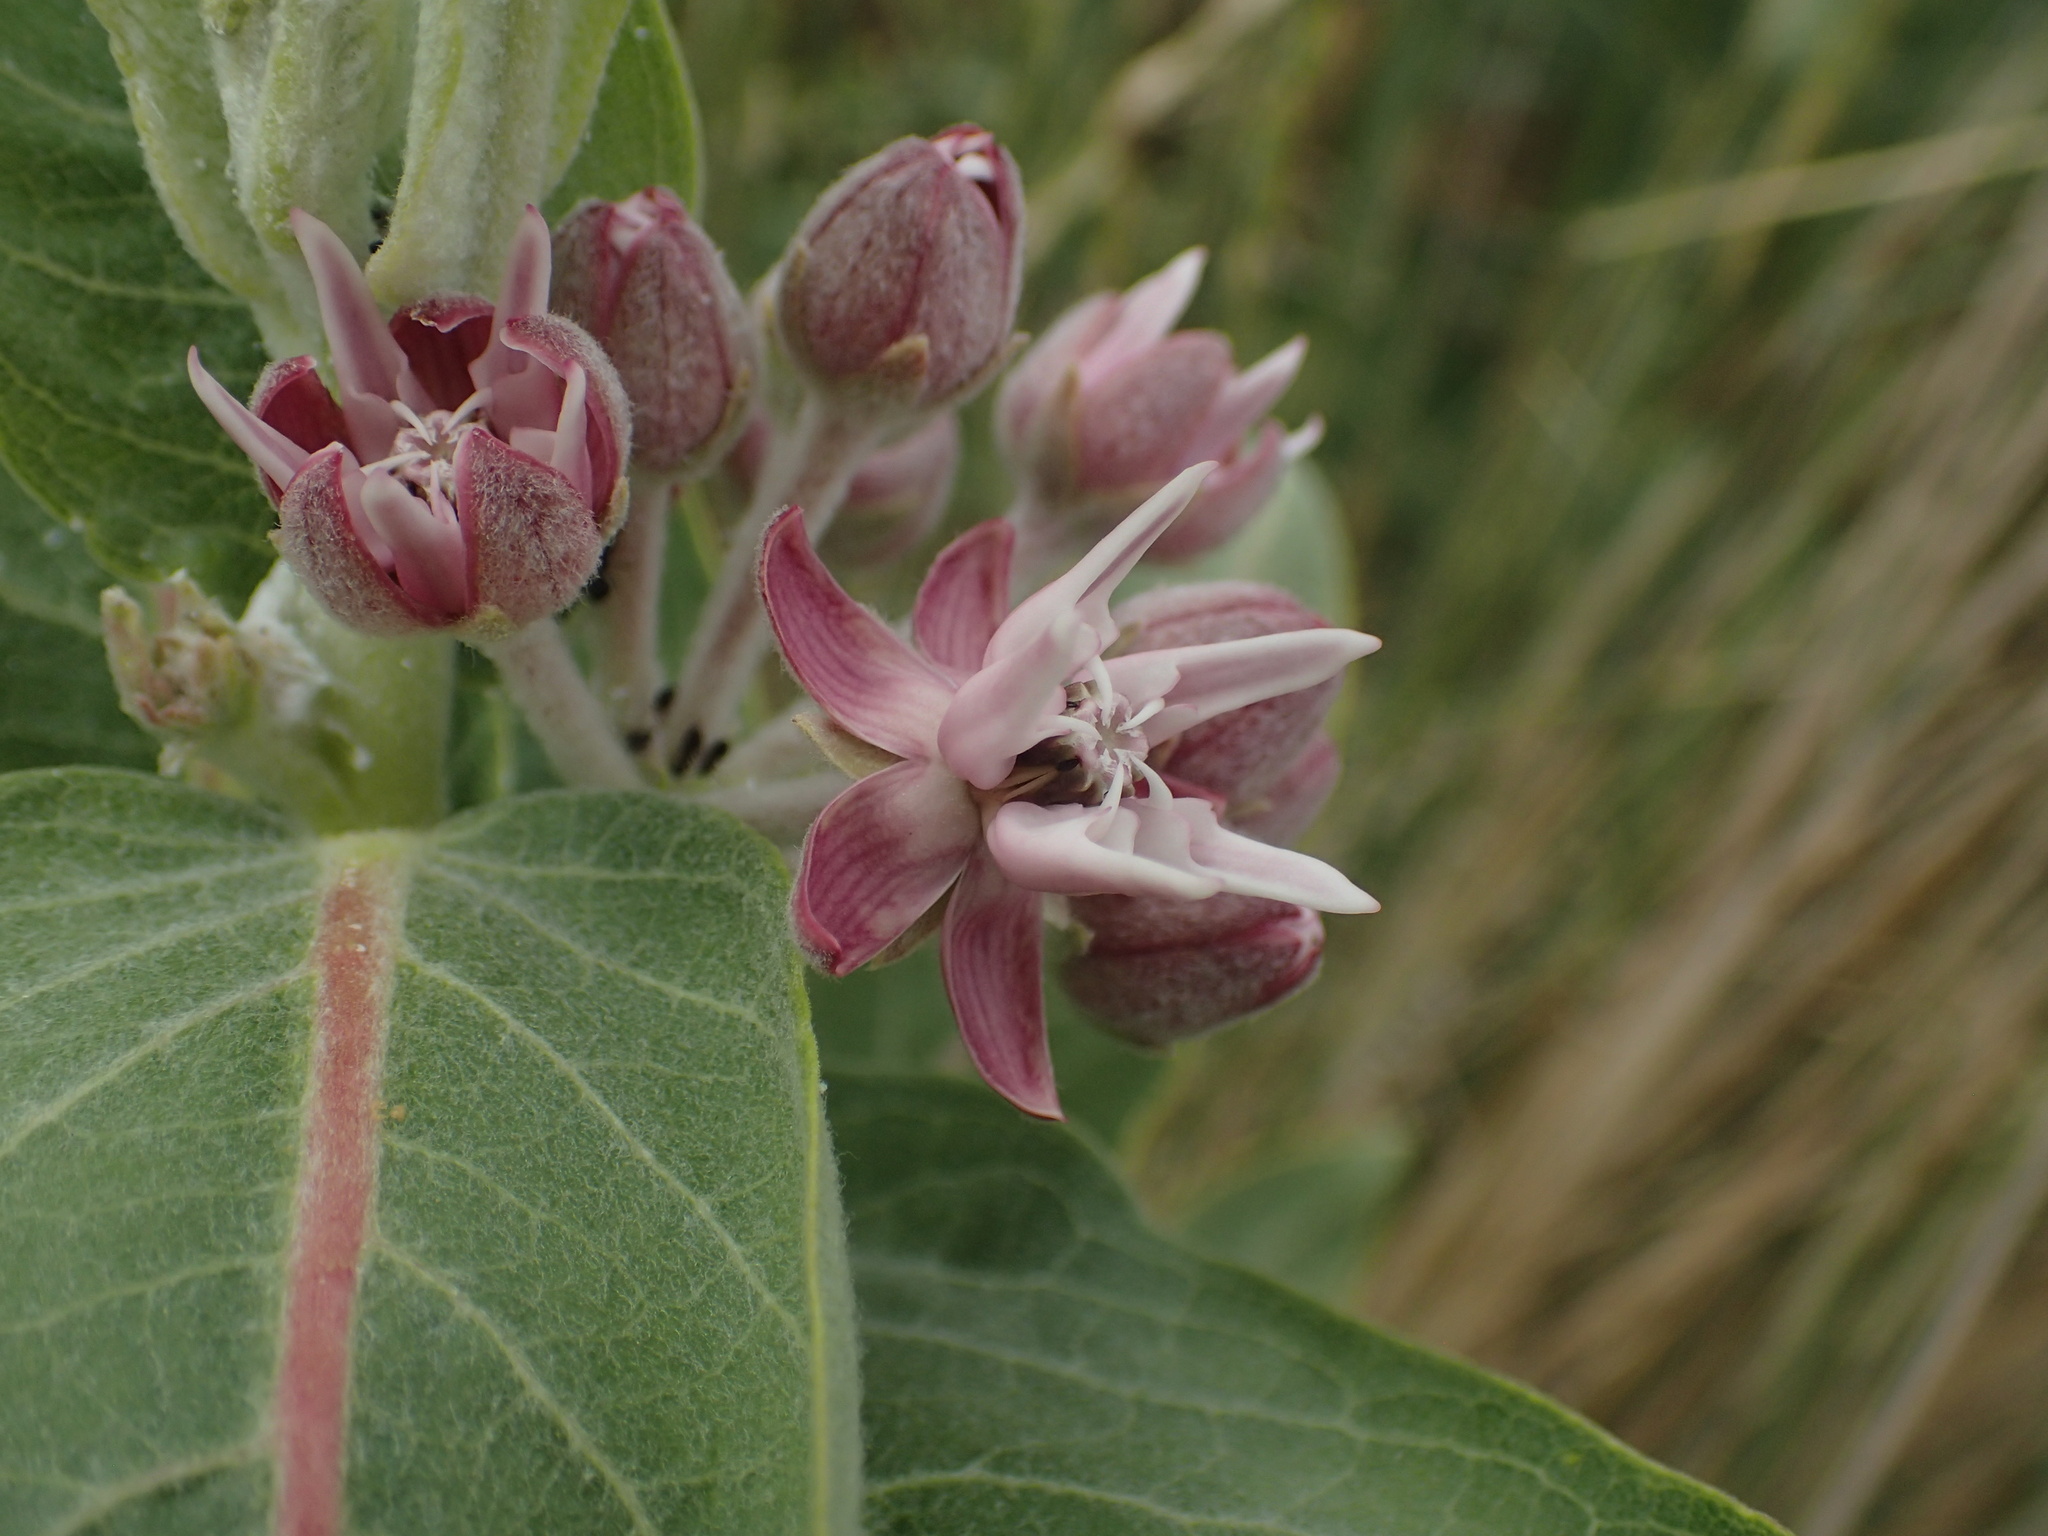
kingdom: Plantae
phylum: Tracheophyta
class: Magnoliopsida
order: Gentianales
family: Apocynaceae
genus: Asclepias
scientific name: Asclepias speciosa
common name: Showy milkweed
